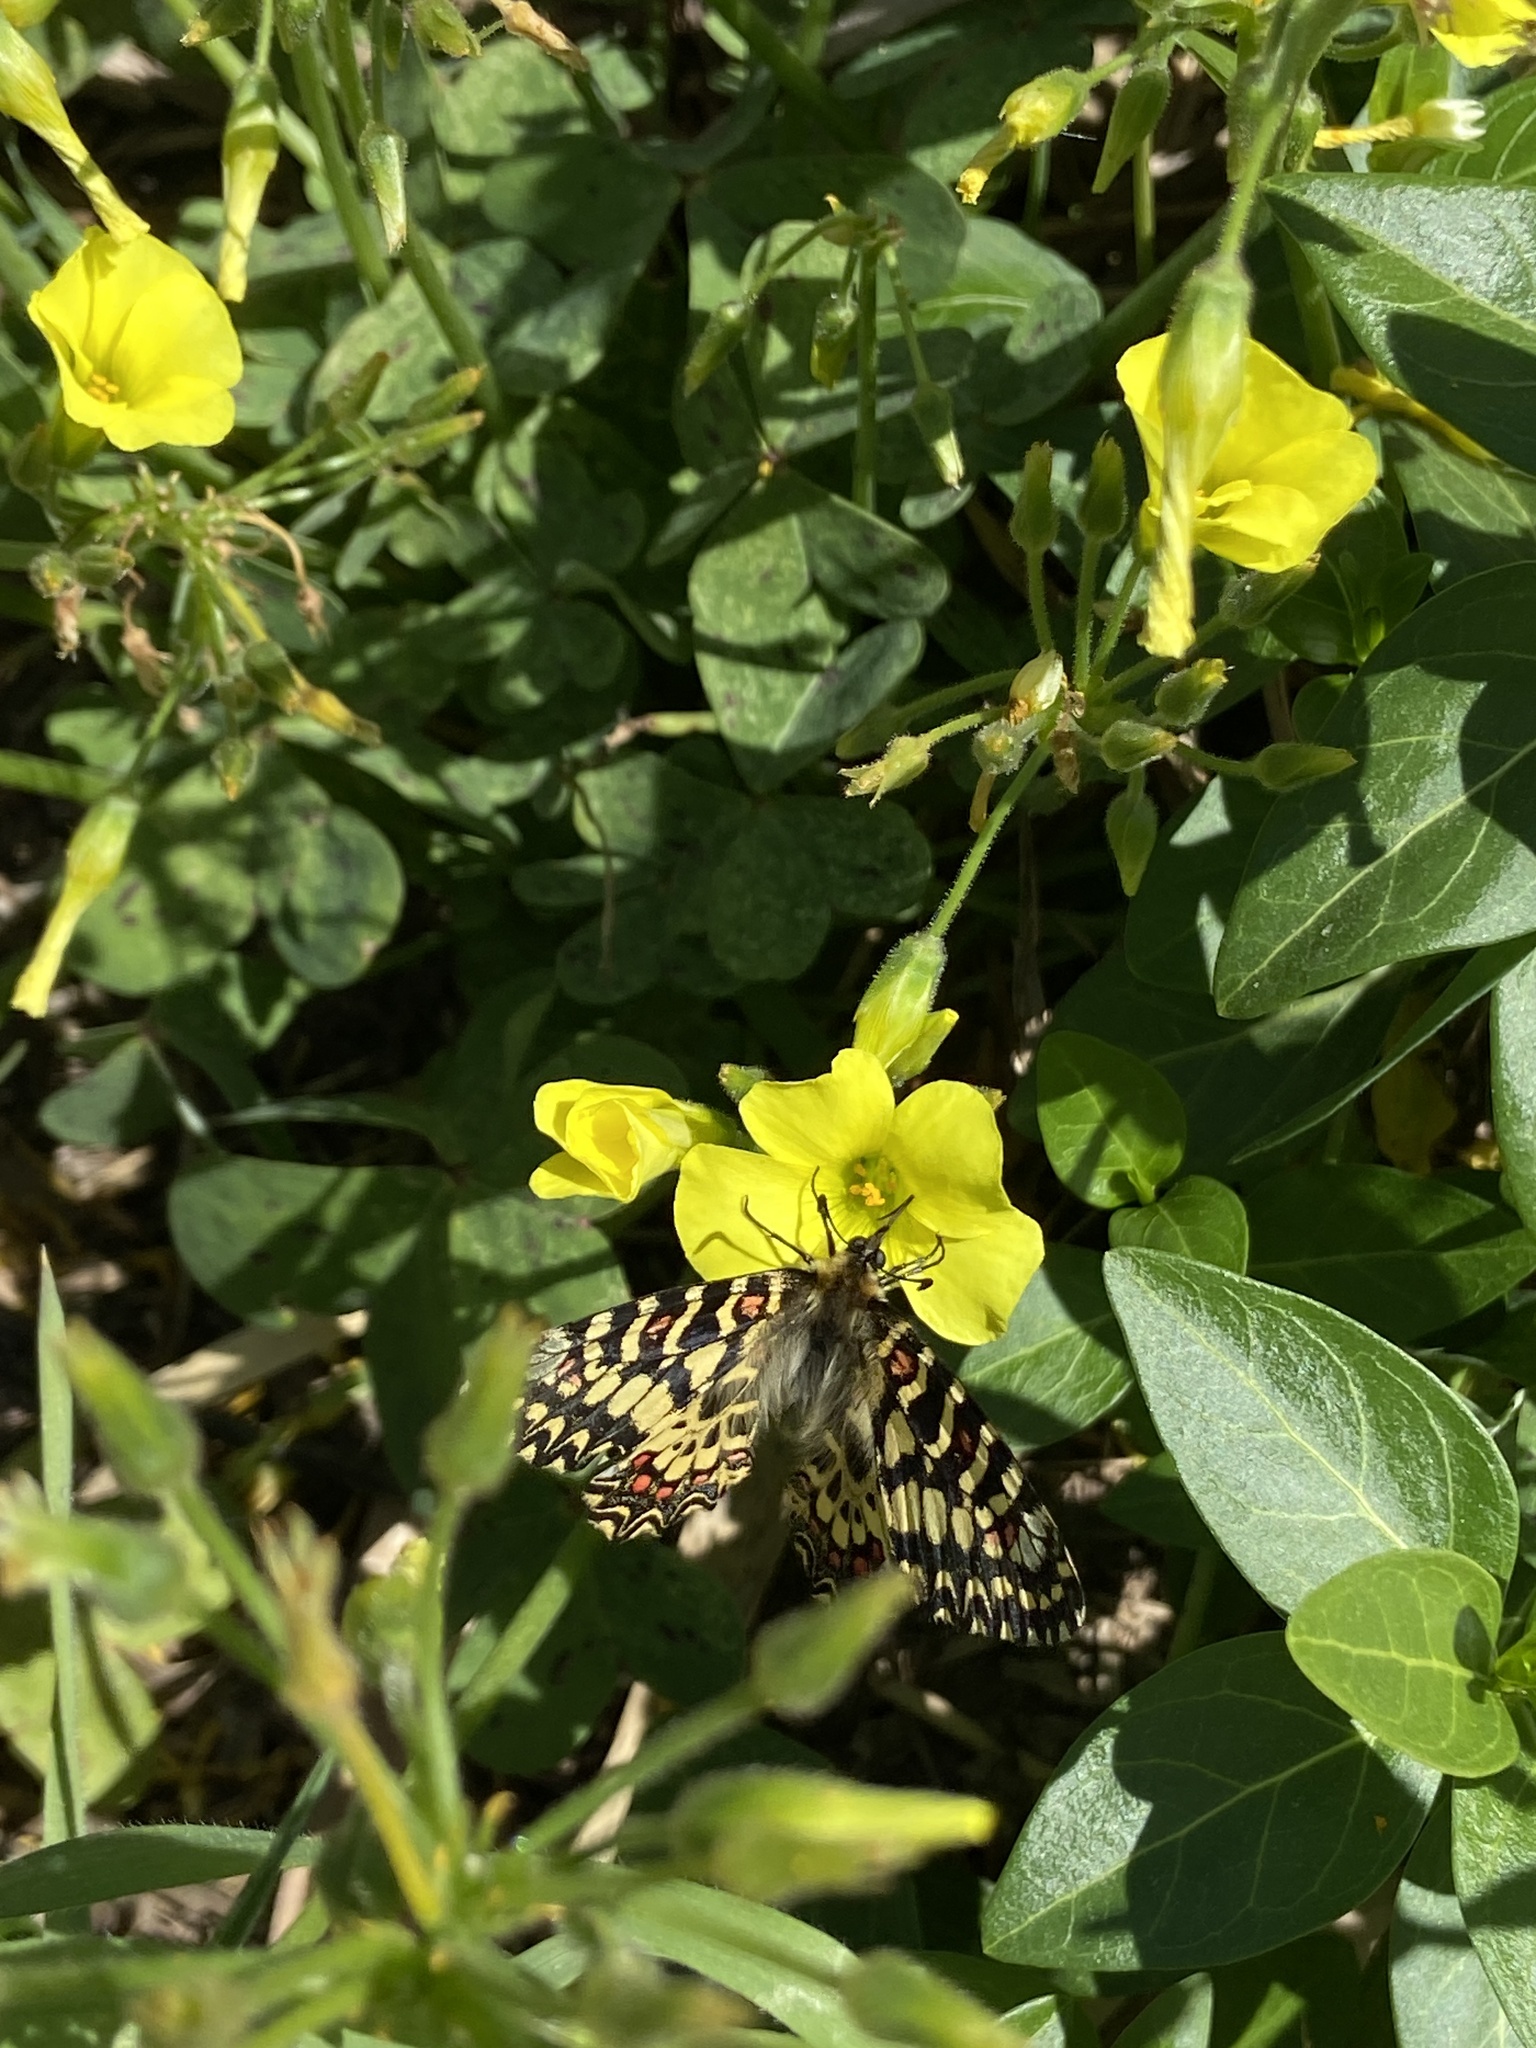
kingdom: Animalia
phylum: Arthropoda
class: Insecta
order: Lepidoptera
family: Papilionidae
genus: Zerynthia
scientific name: Zerynthia rumina
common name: Spanish festoon
